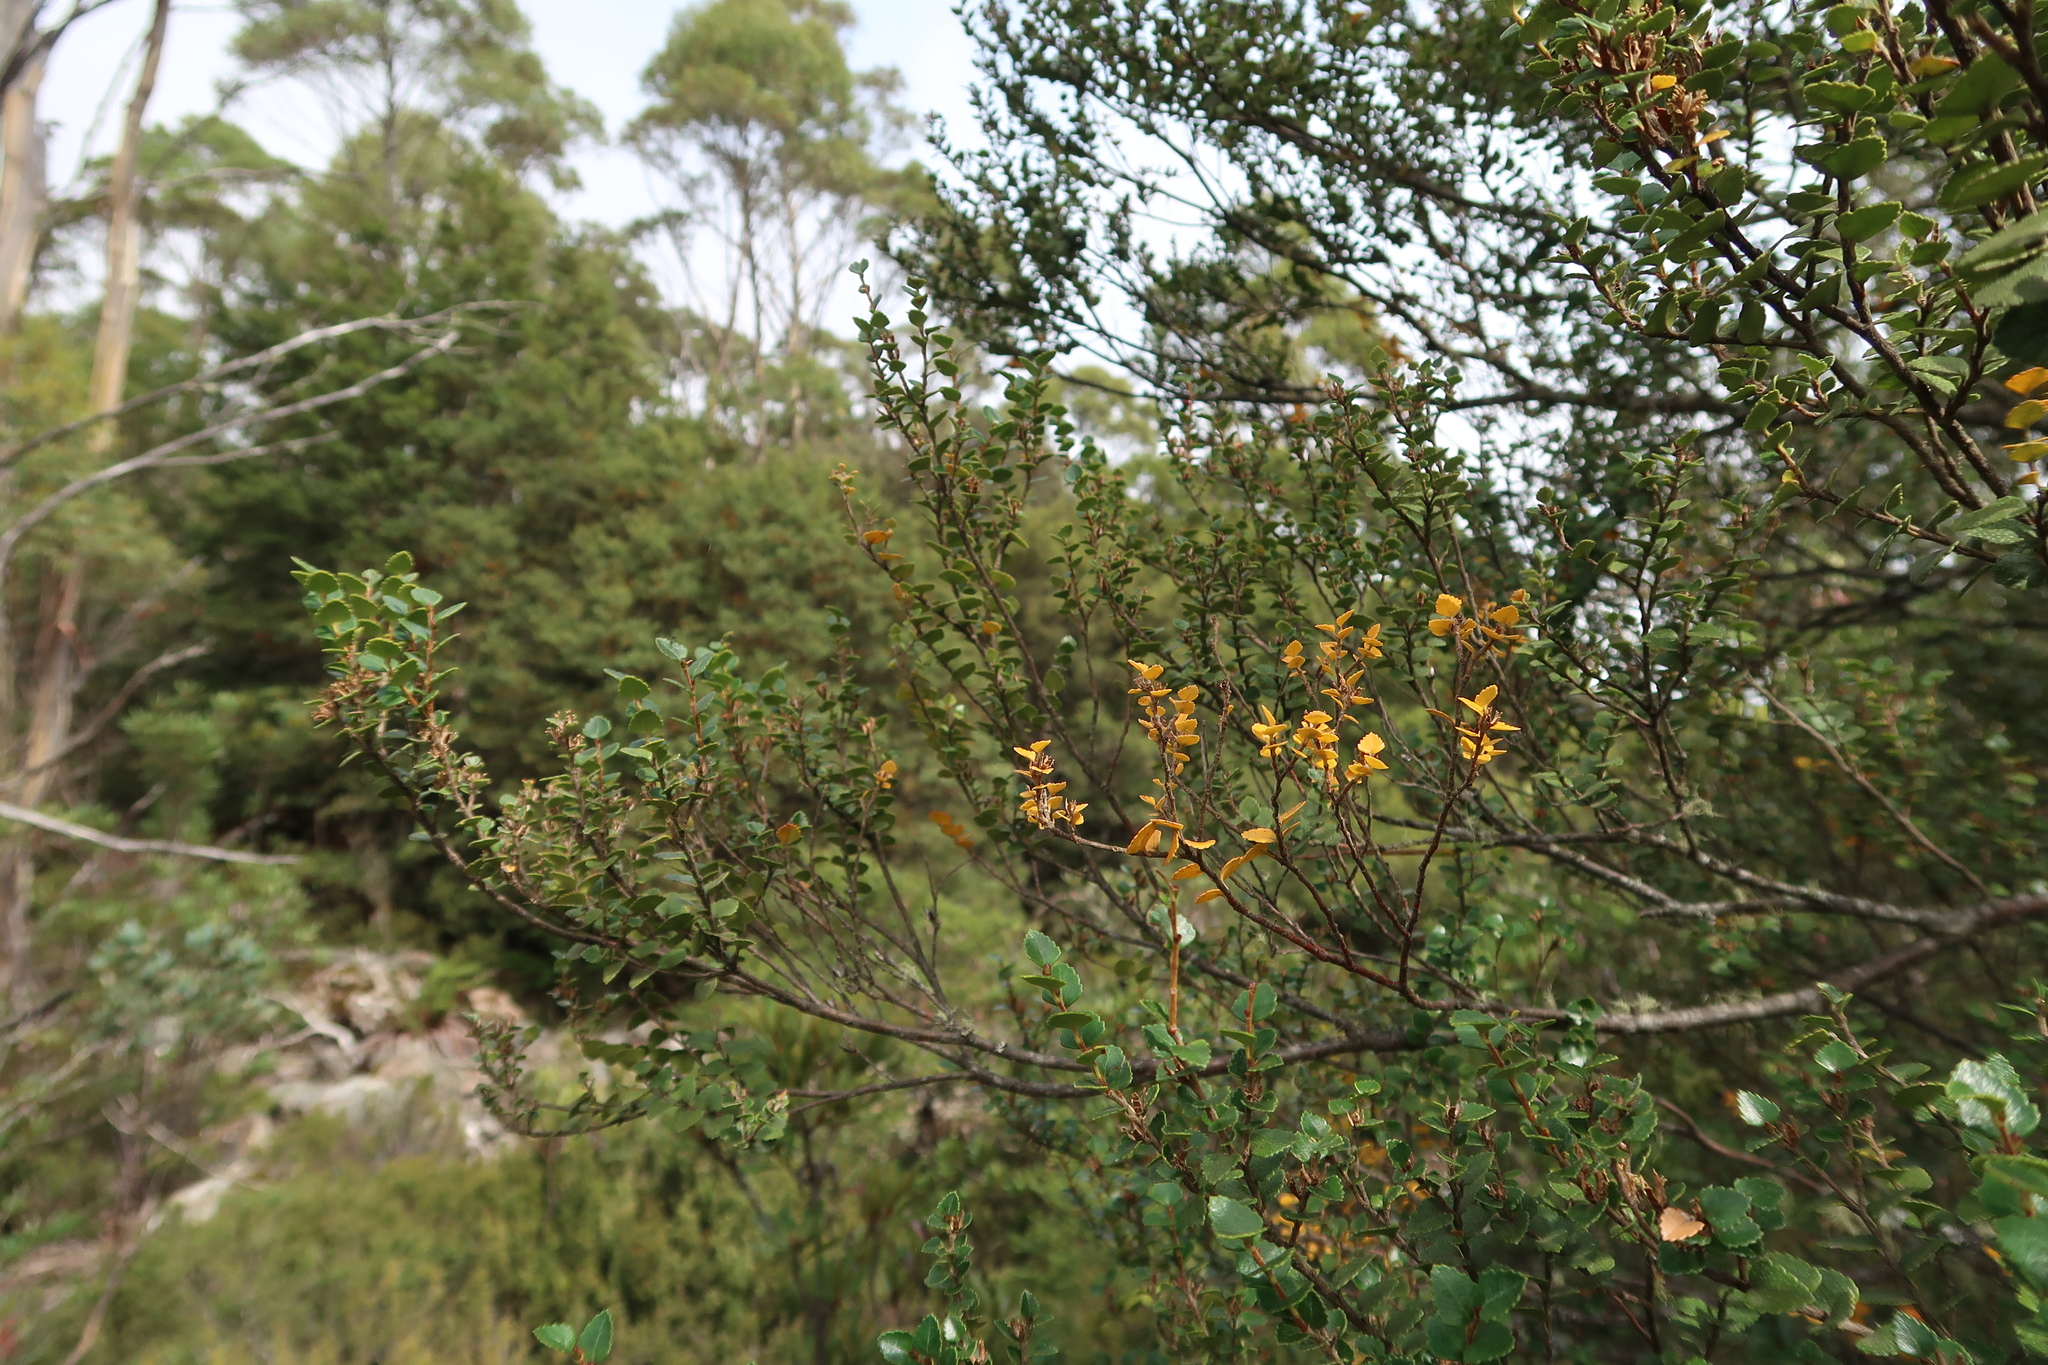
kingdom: Plantae
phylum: Tracheophyta
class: Magnoliopsida
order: Fagales
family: Nothofagaceae
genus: Nothofagus
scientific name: Nothofagus cunninghamii
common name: Myrtle beech
